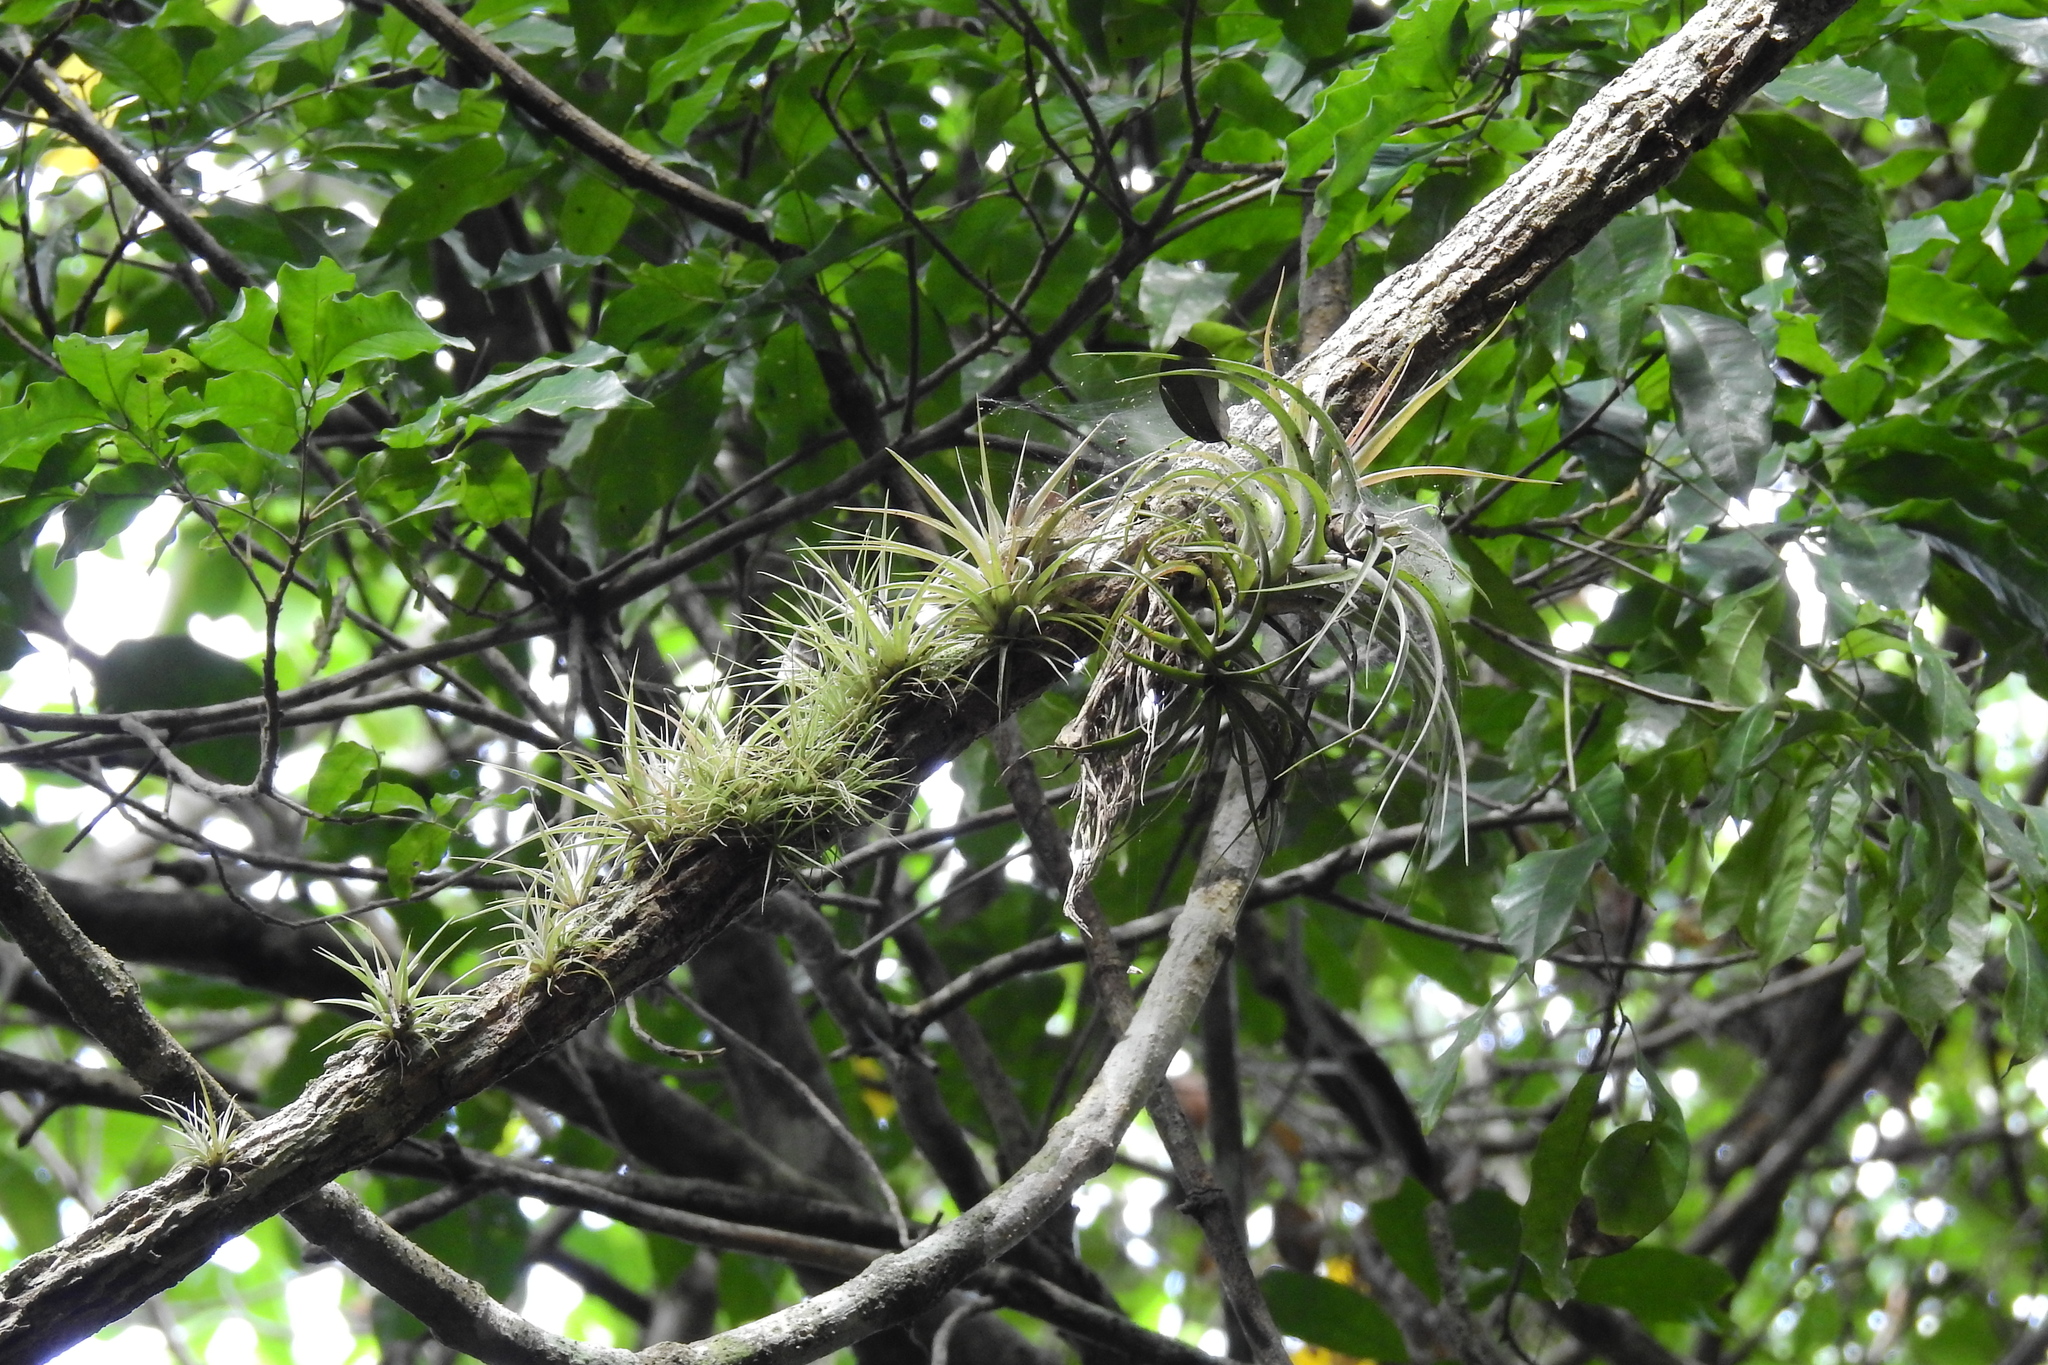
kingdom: Plantae
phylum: Tracheophyta
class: Liliopsida
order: Poales
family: Bromeliaceae
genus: Tillandsia
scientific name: Tillandsia recurvata
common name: Small ballmoss
